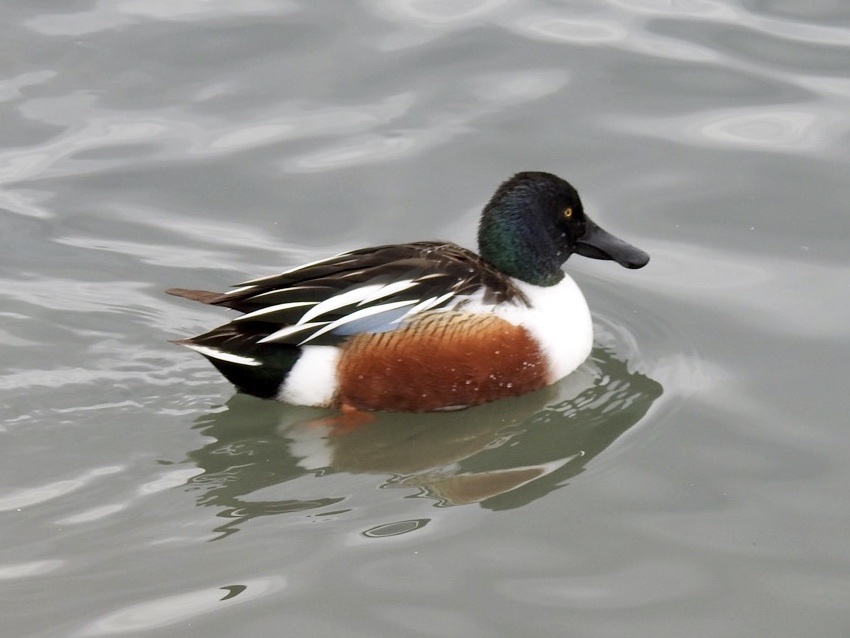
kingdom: Animalia
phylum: Chordata
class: Aves
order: Anseriformes
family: Anatidae
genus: Spatula
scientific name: Spatula clypeata
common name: Northern shoveler
